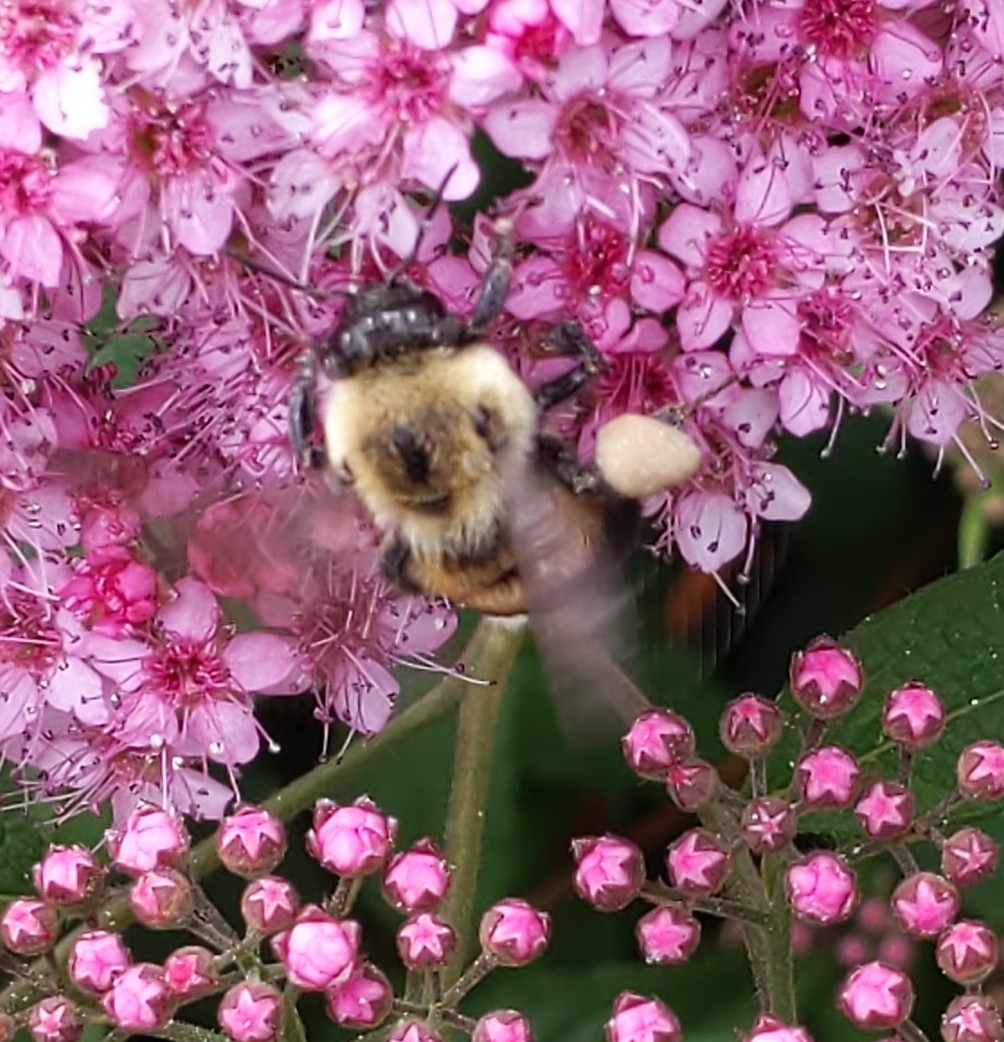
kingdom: Animalia
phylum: Arthropoda
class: Insecta
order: Hymenoptera
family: Apidae
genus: Bombus
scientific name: Bombus griseocollis
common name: Brown-belted bumble bee
